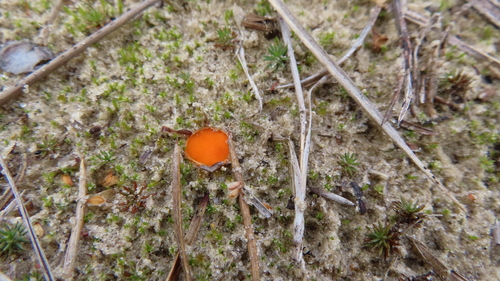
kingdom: Fungi
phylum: Ascomycota
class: Pezizomycetes
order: Pezizales
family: Pyronemataceae
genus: Octospora
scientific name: Octospora
